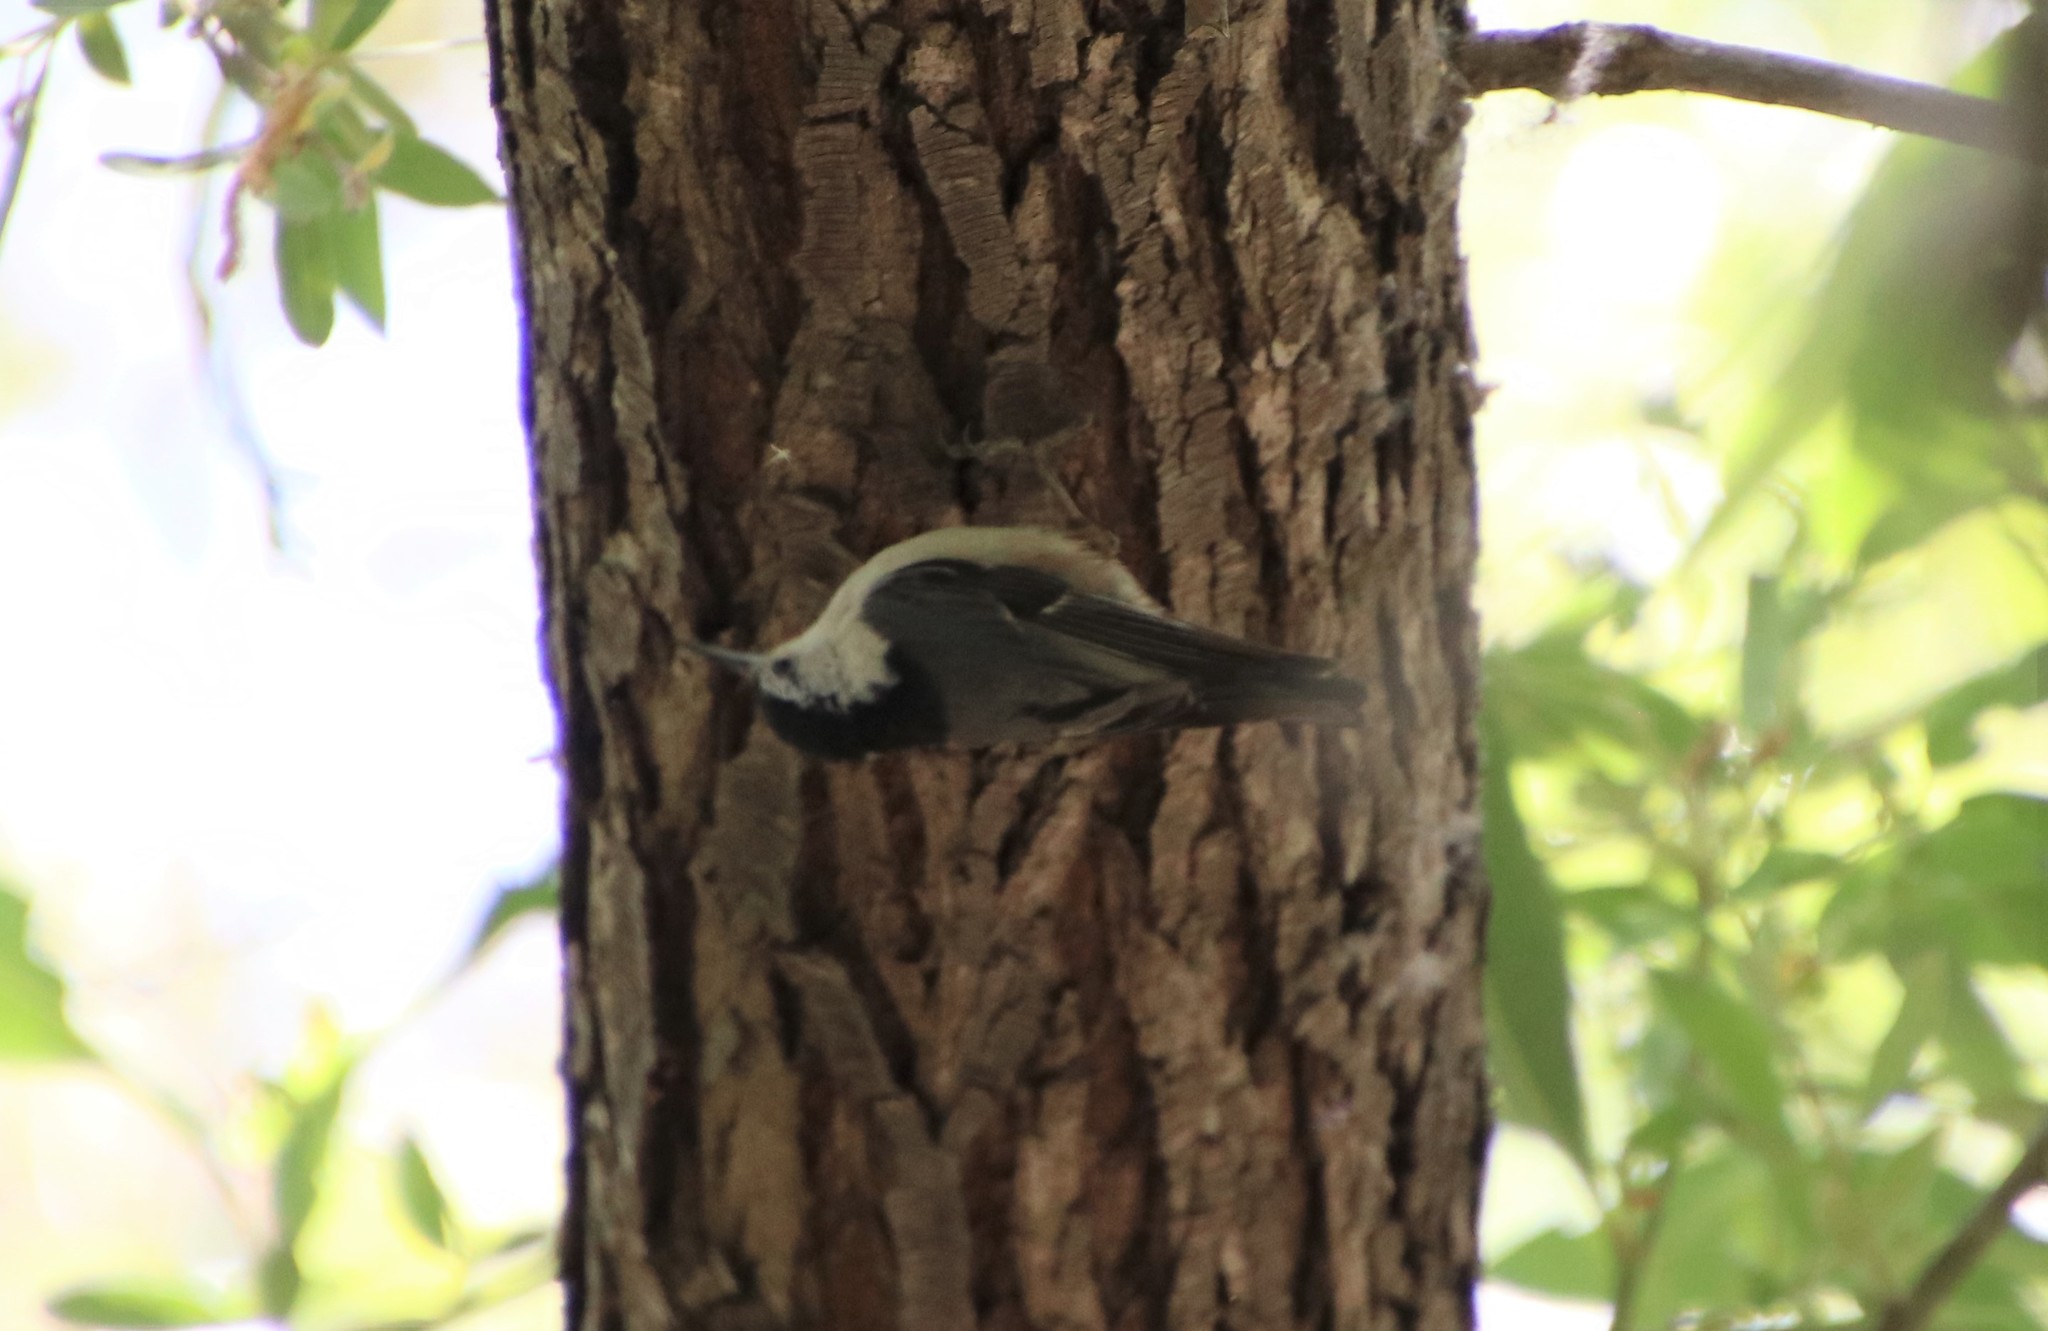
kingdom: Animalia
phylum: Chordata
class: Aves
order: Passeriformes
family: Sittidae
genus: Sitta
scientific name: Sitta carolinensis
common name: White-breasted nuthatch
